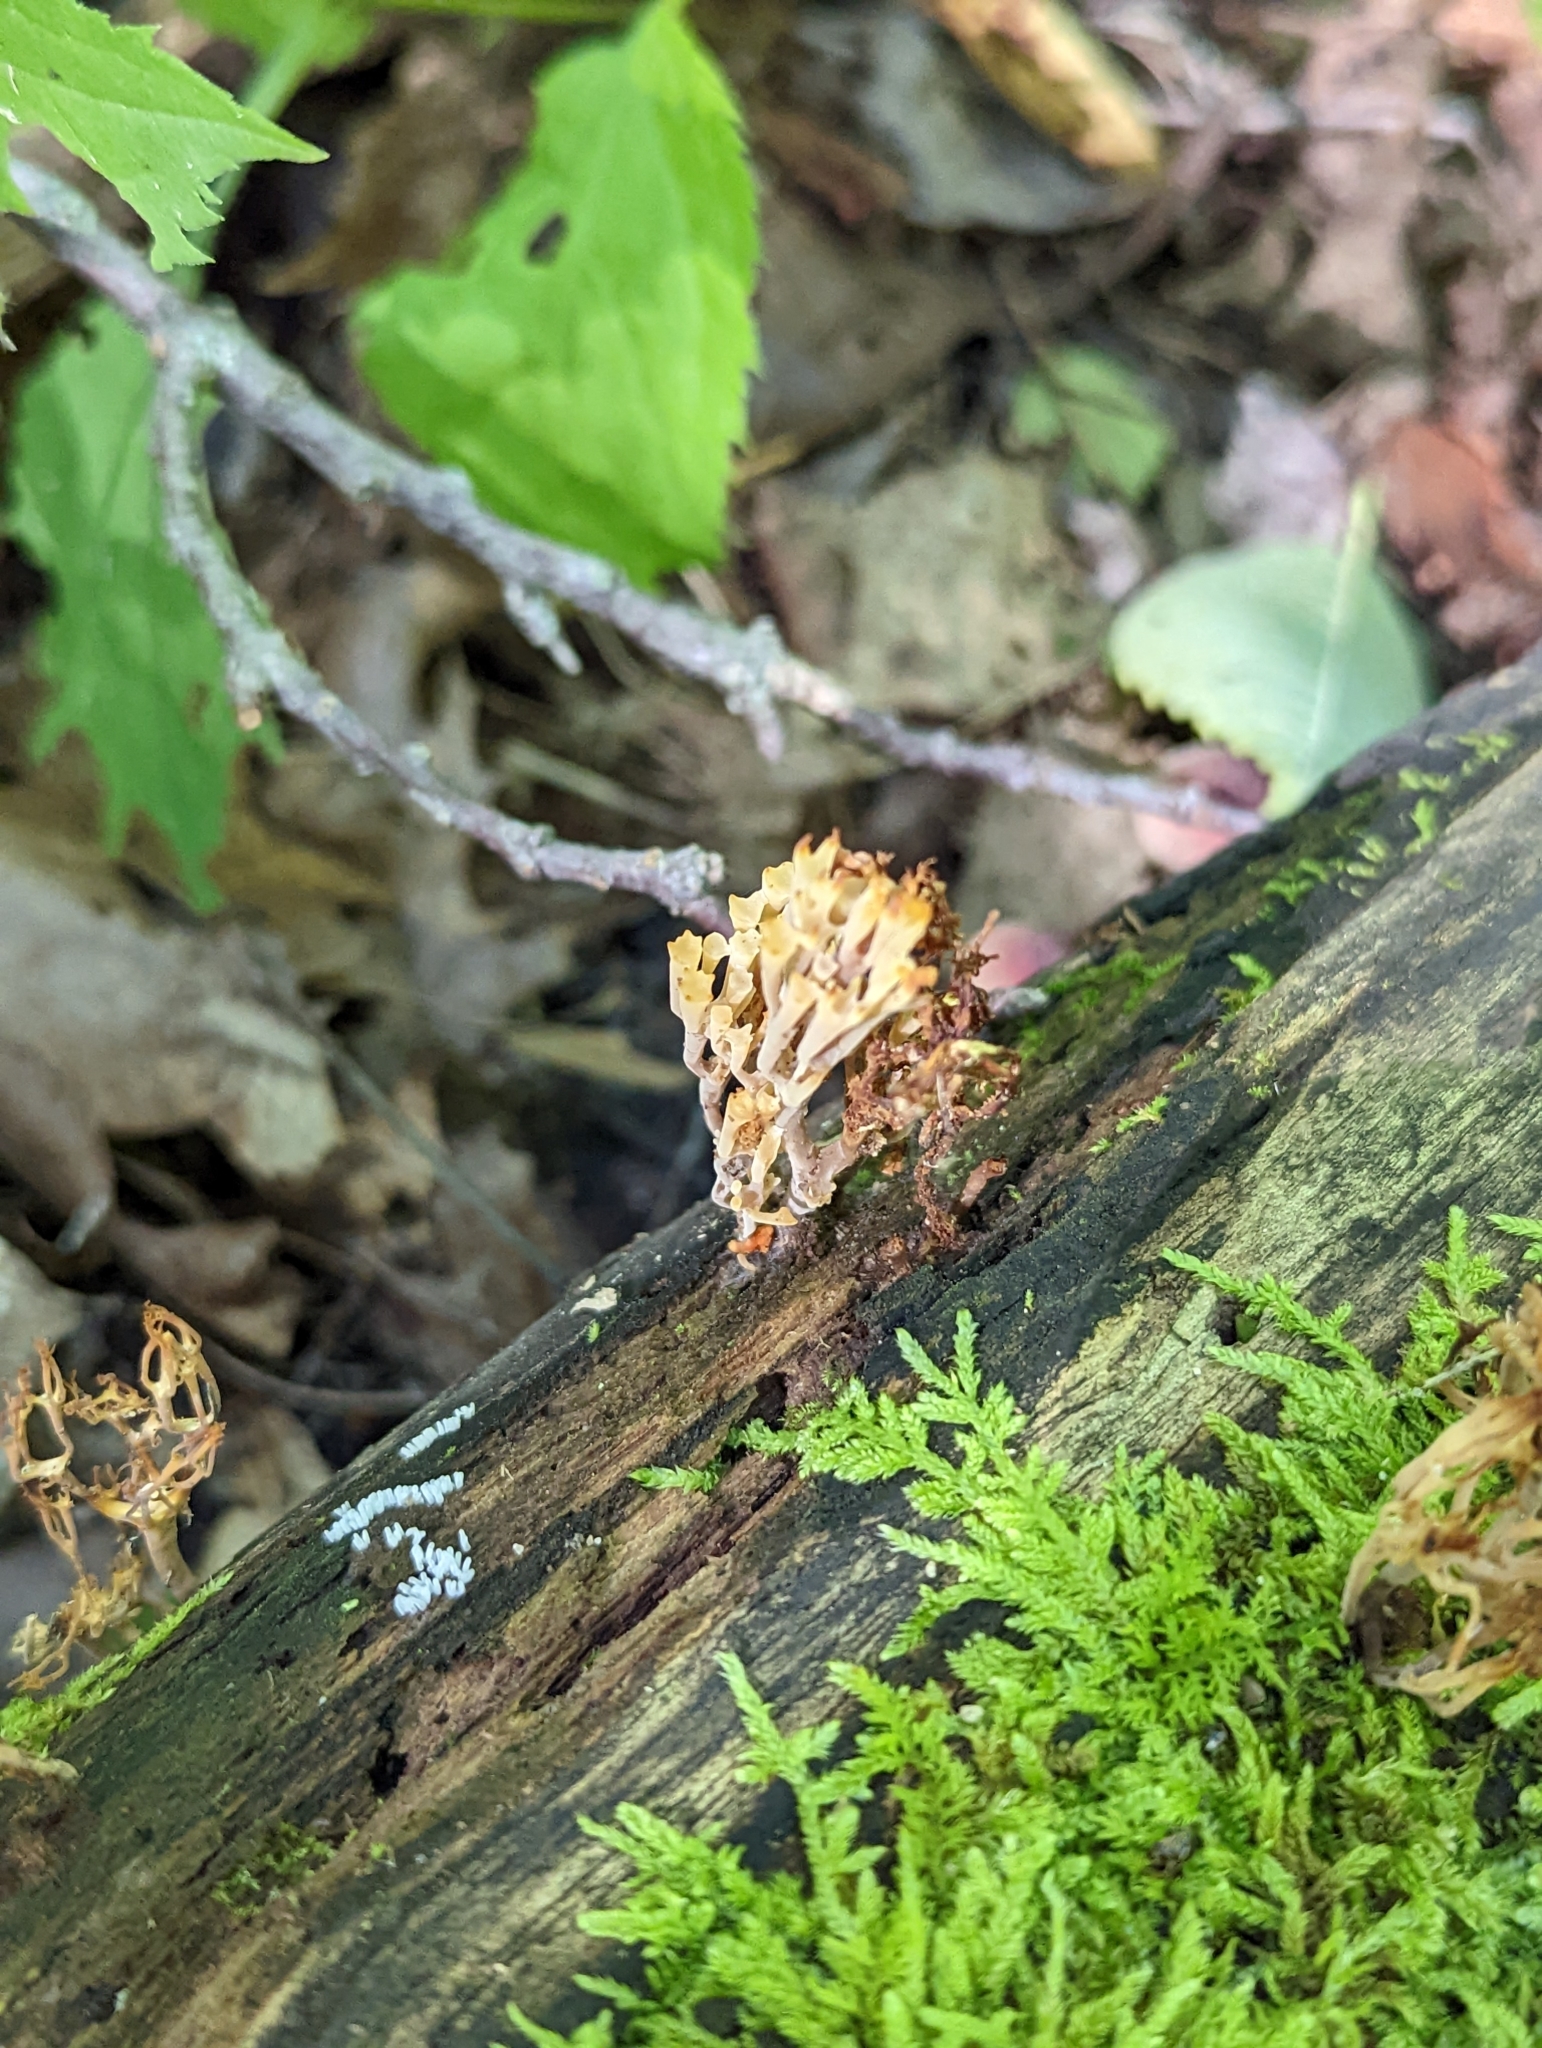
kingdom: Fungi
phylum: Basidiomycota
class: Agaricomycetes
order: Russulales
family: Auriscalpiaceae
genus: Artomyces
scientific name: Artomyces pyxidatus
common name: Crown-tipped coral fungus
